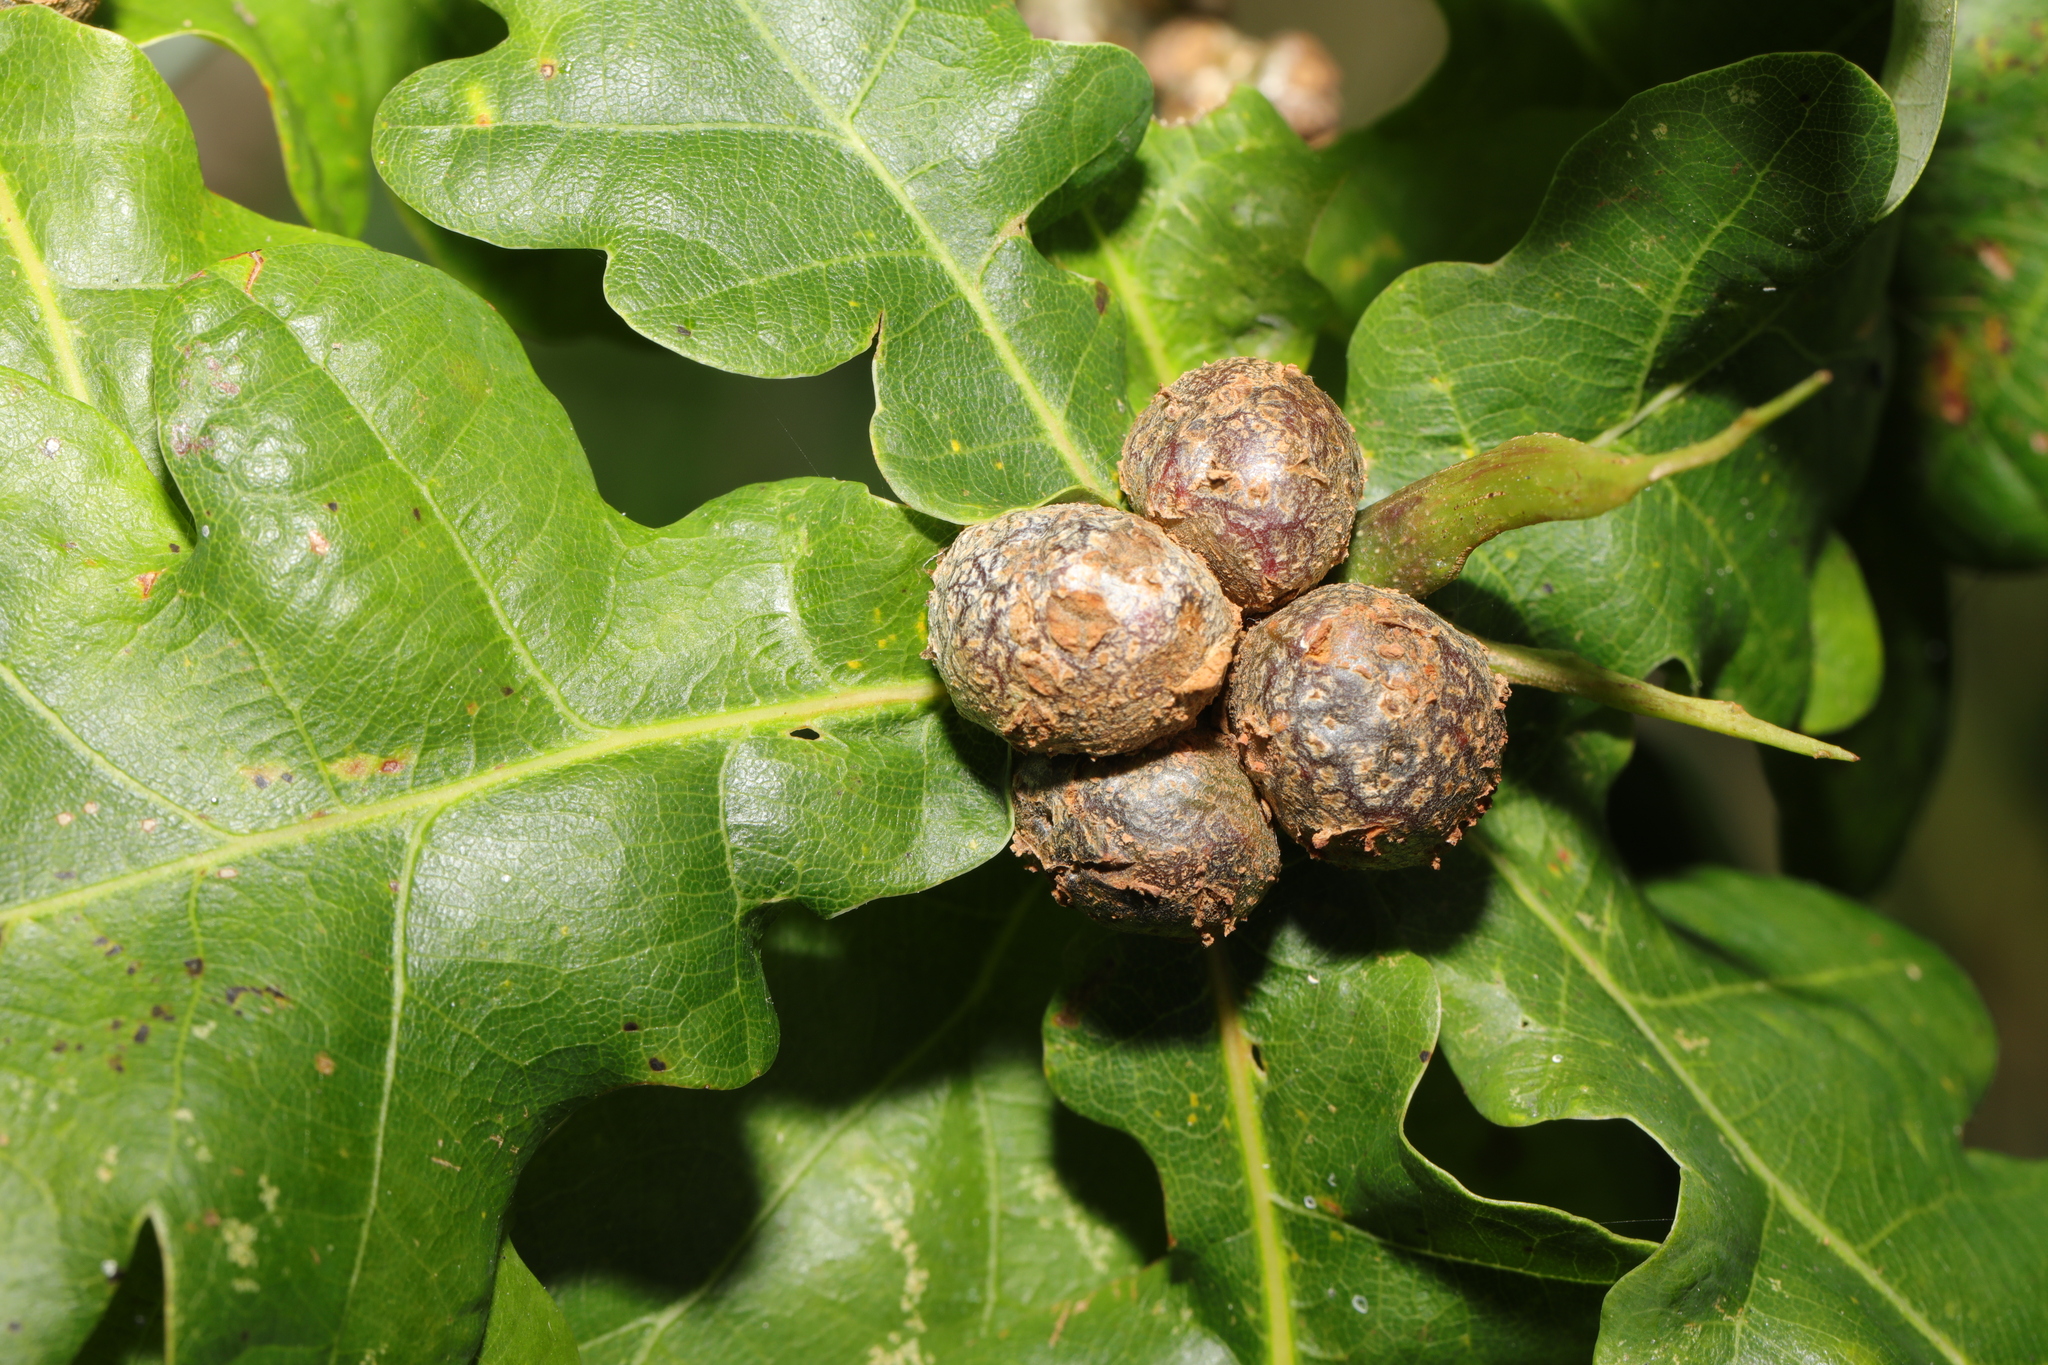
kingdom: Animalia
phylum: Arthropoda
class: Insecta
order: Hymenoptera
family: Cynipidae
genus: Andricus
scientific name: Andricus lignicolus
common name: Cola-nut gall
